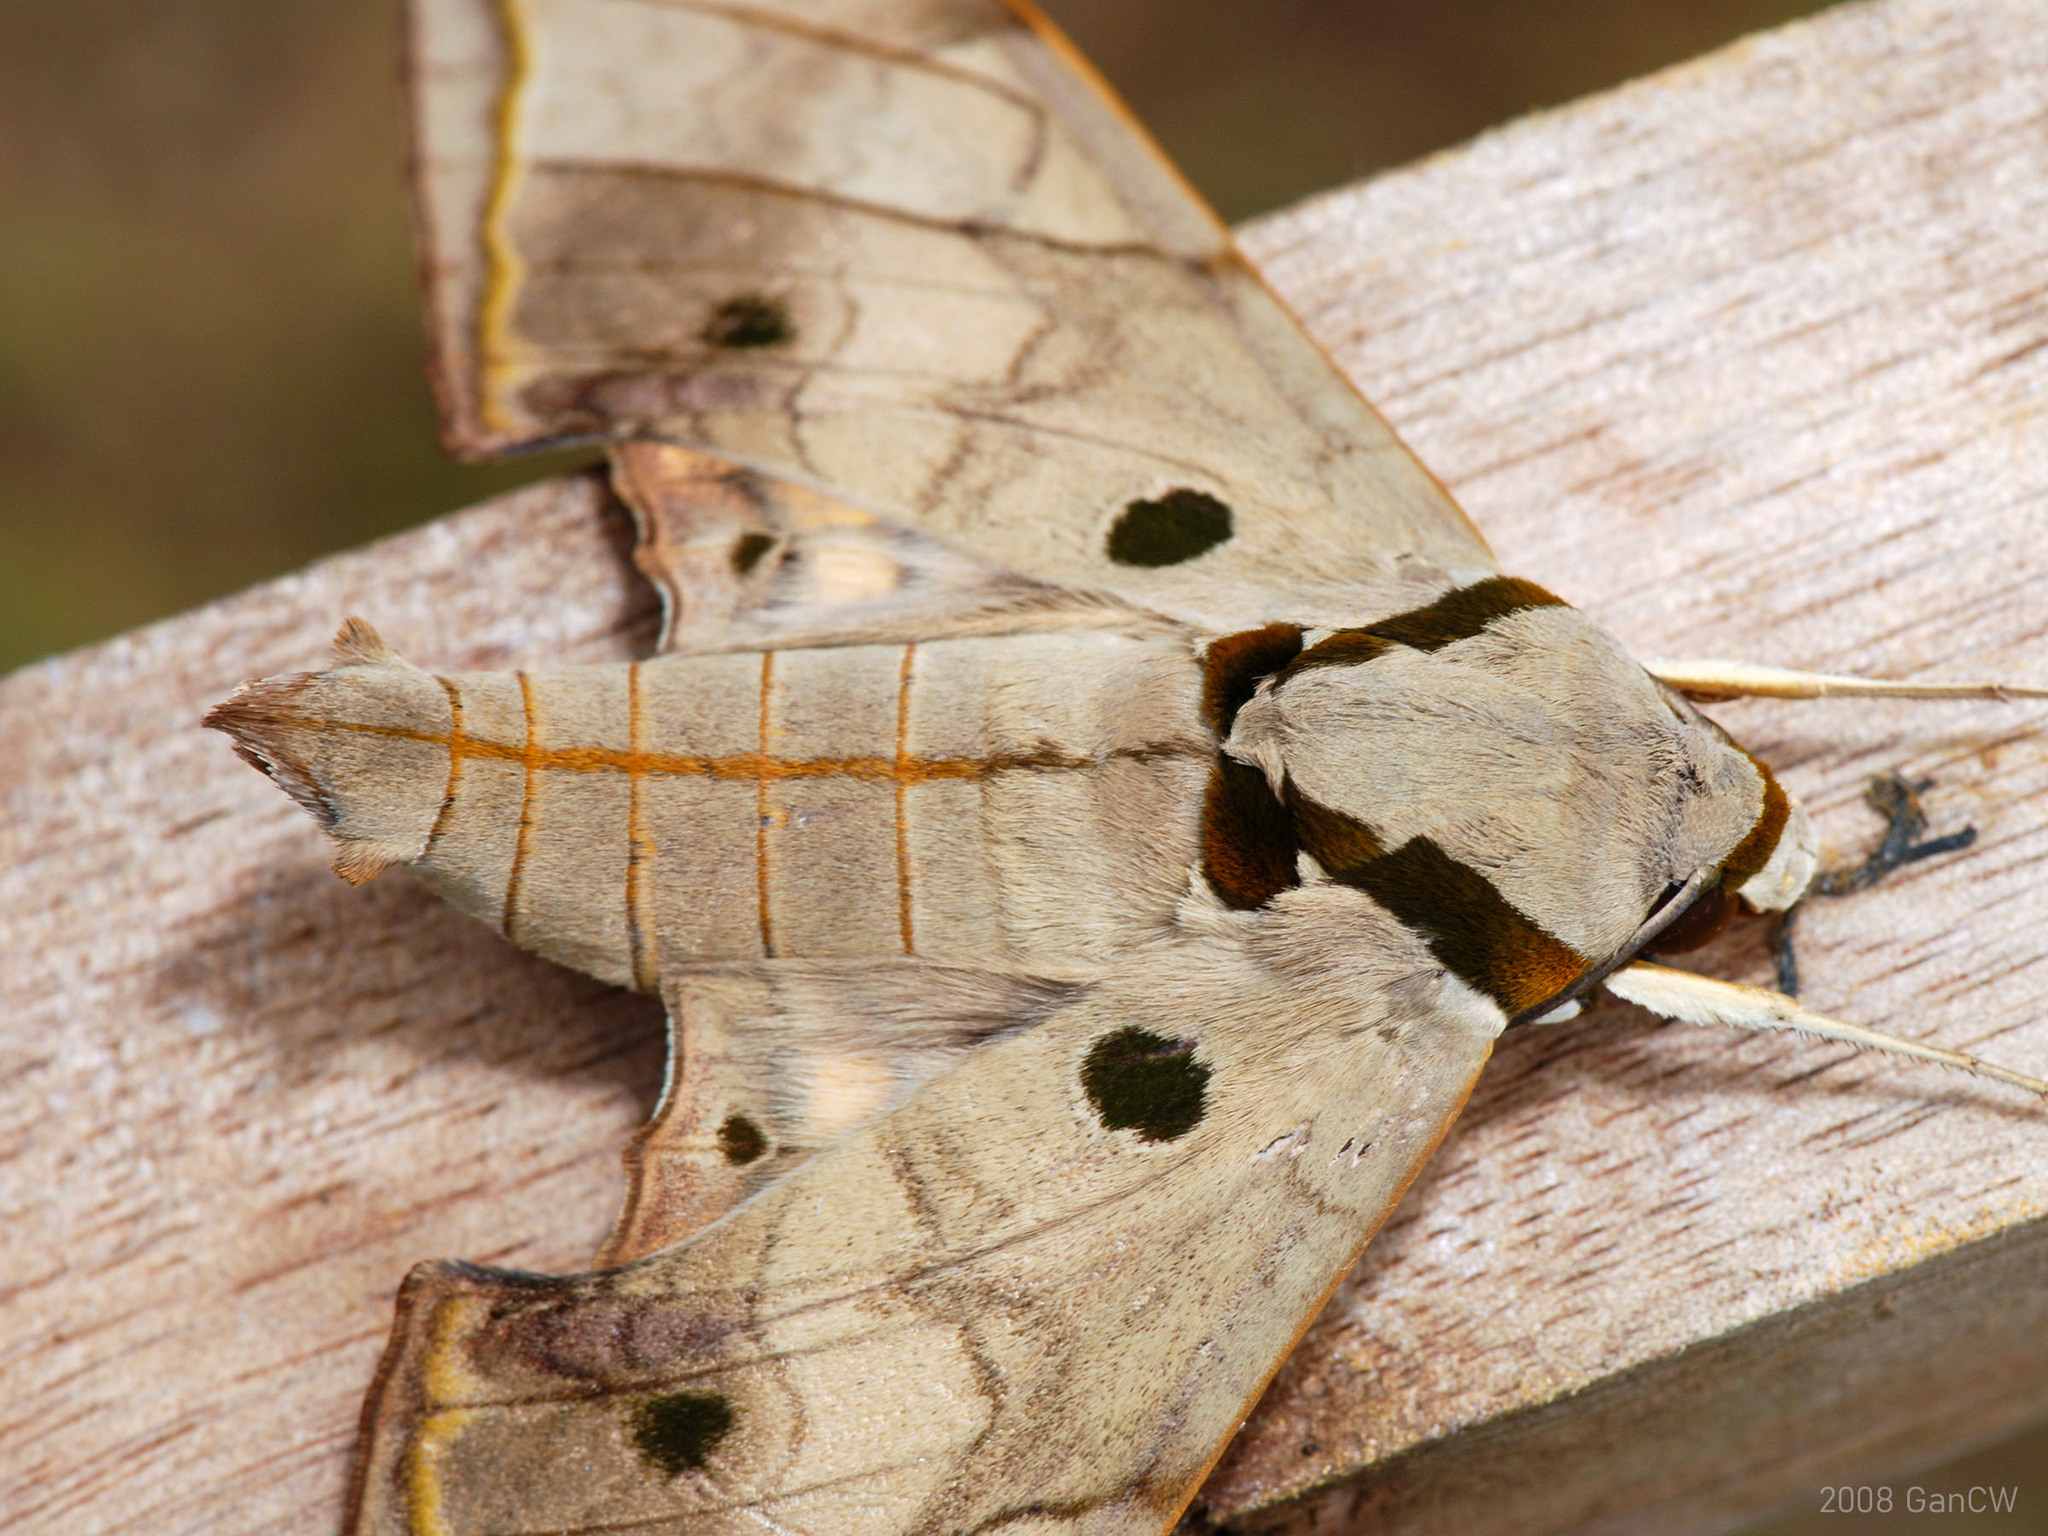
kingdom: Animalia
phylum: Arthropoda
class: Insecta
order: Lepidoptera
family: Sphingidae
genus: Ambulyx
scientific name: Ambulyx substrigilis
